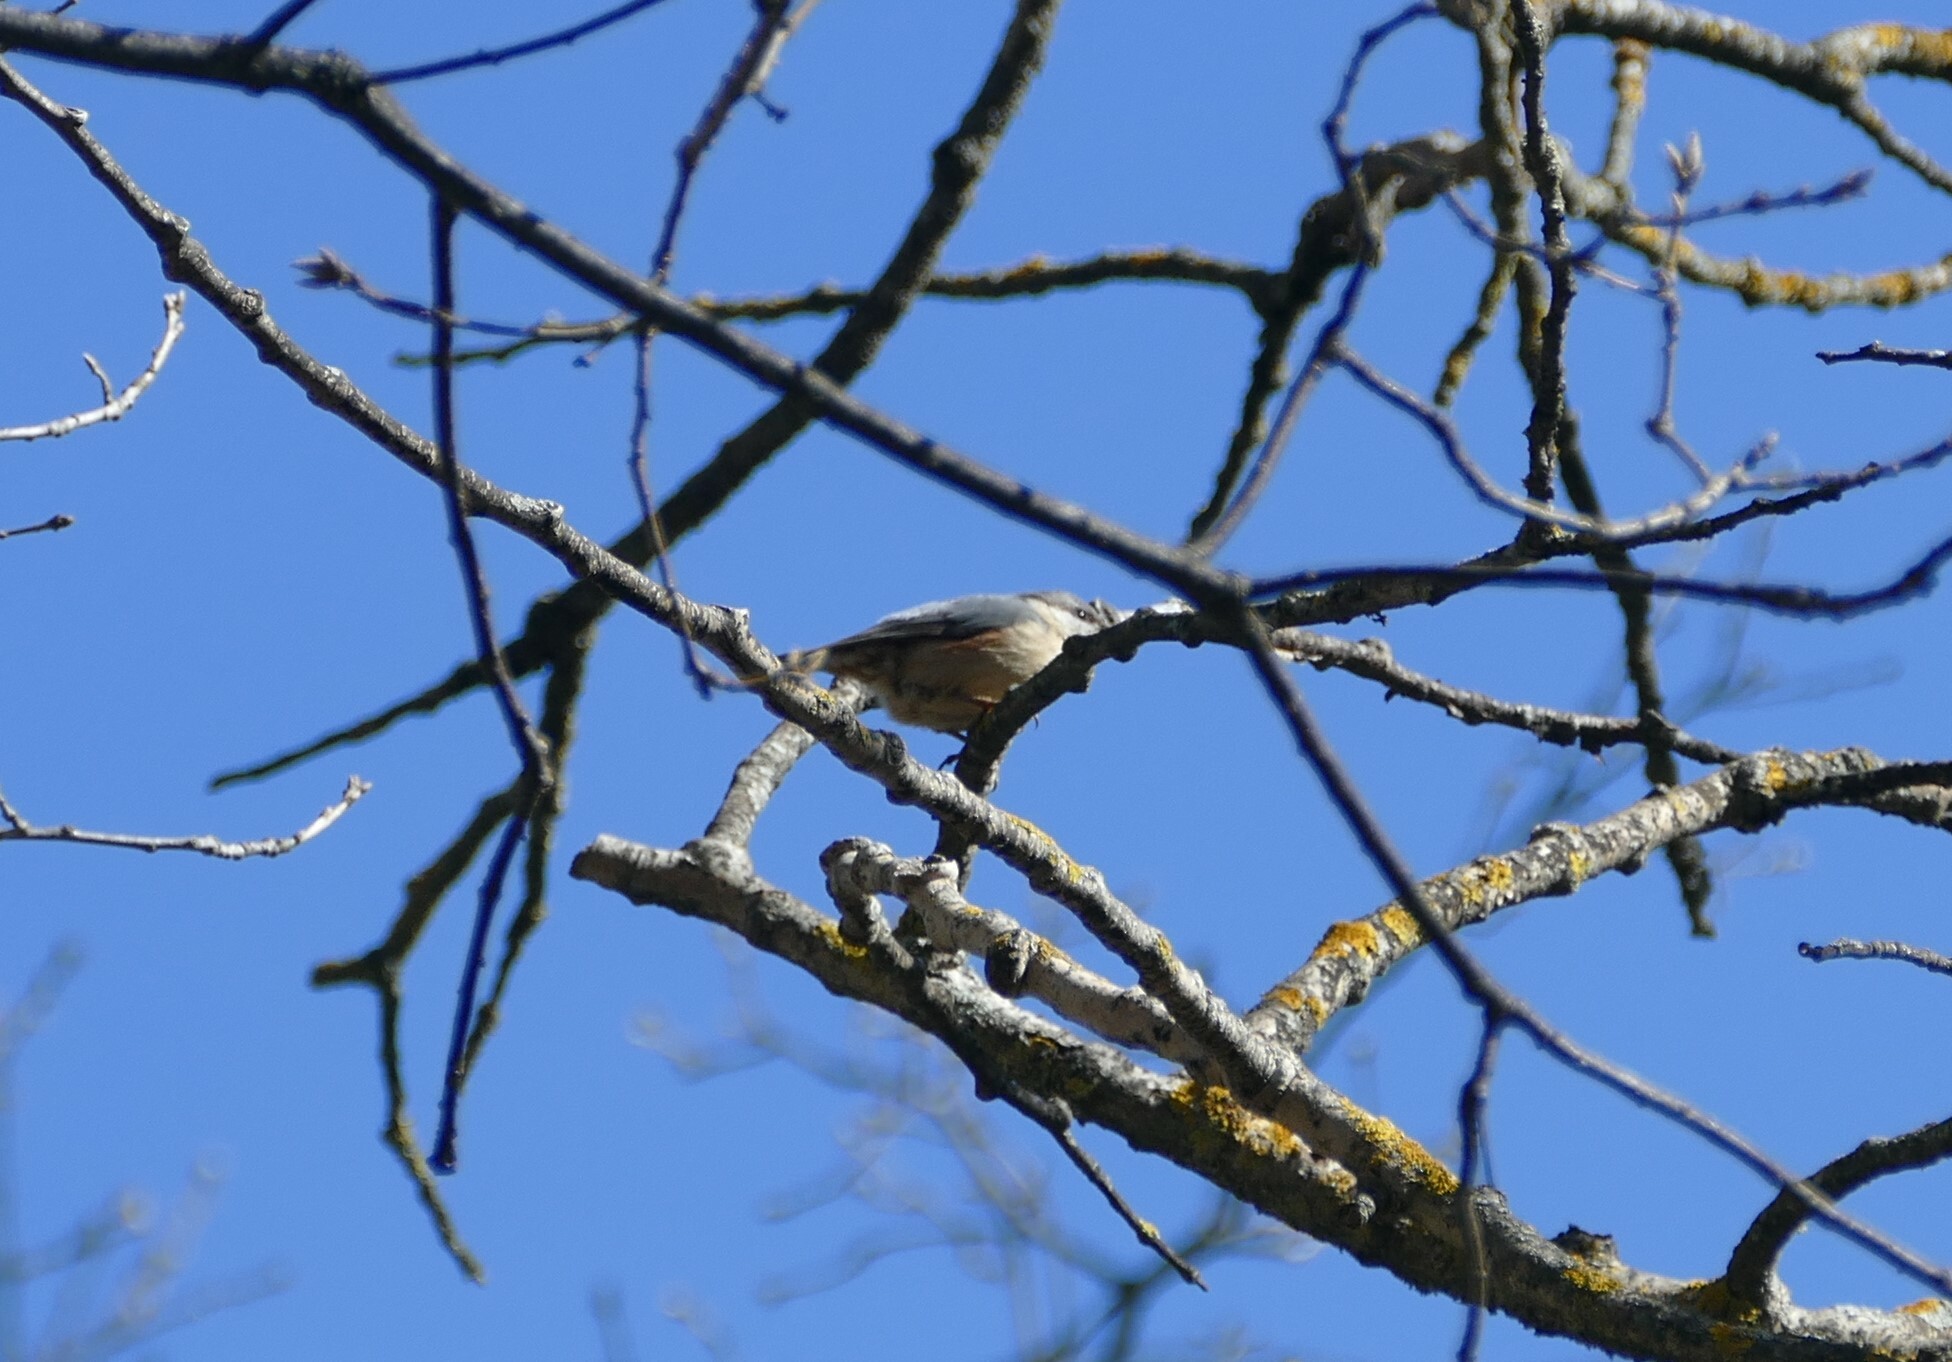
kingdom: Animalia
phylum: Chordata
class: Aves
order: Passeriformes
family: Sittidae
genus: Sitta
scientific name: Sitta europaea
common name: Eurasian nuthatch
